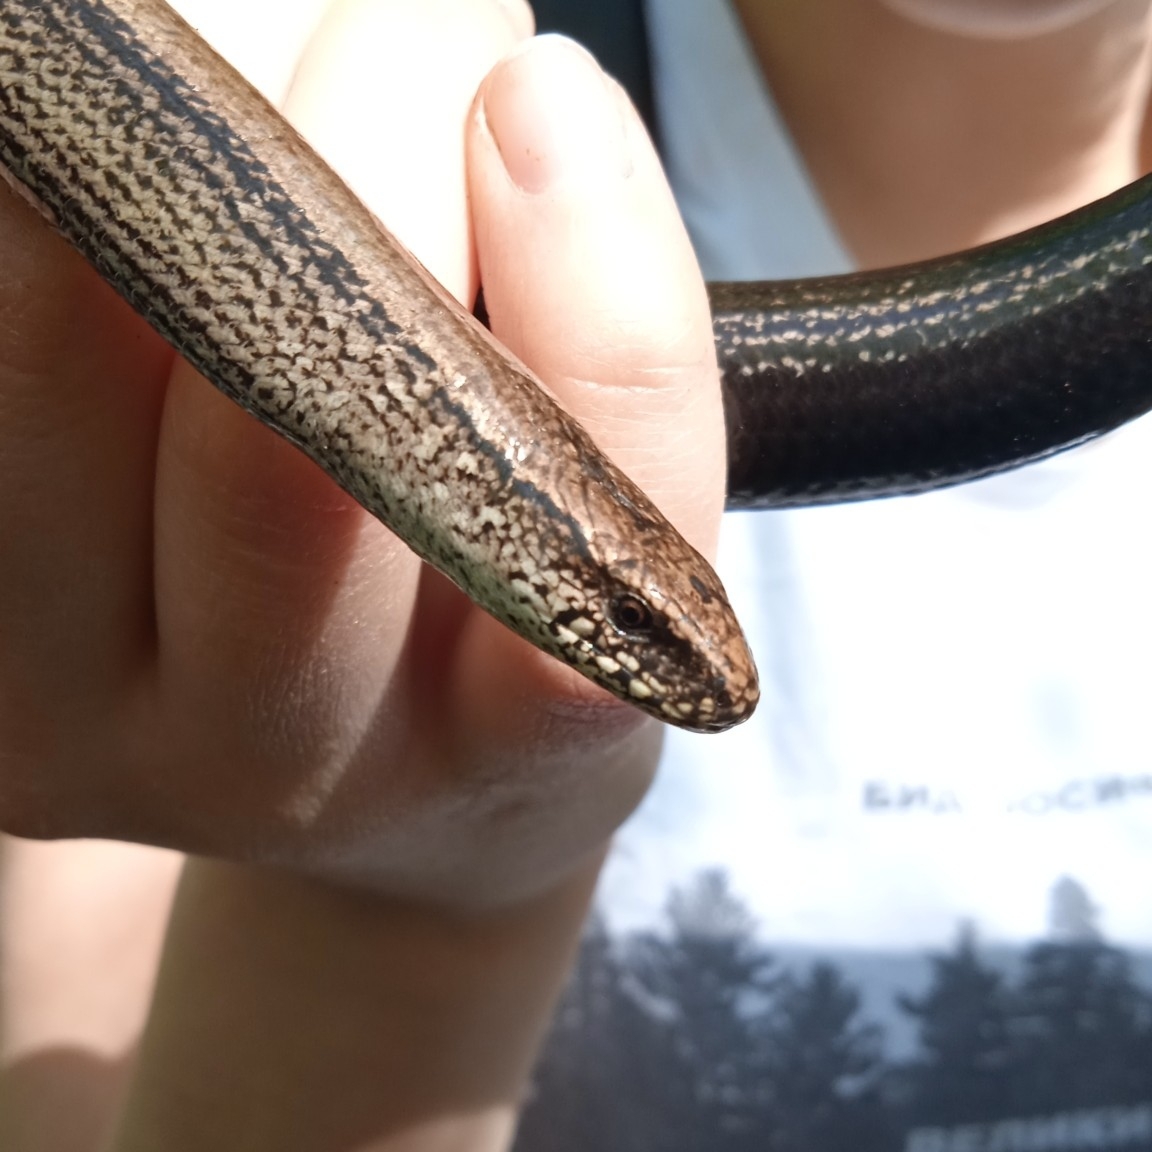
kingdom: Animalia
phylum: Chordata
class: Squamata
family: Anguidae
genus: Anguis
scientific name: Anguis fragilis
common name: Slow worm
